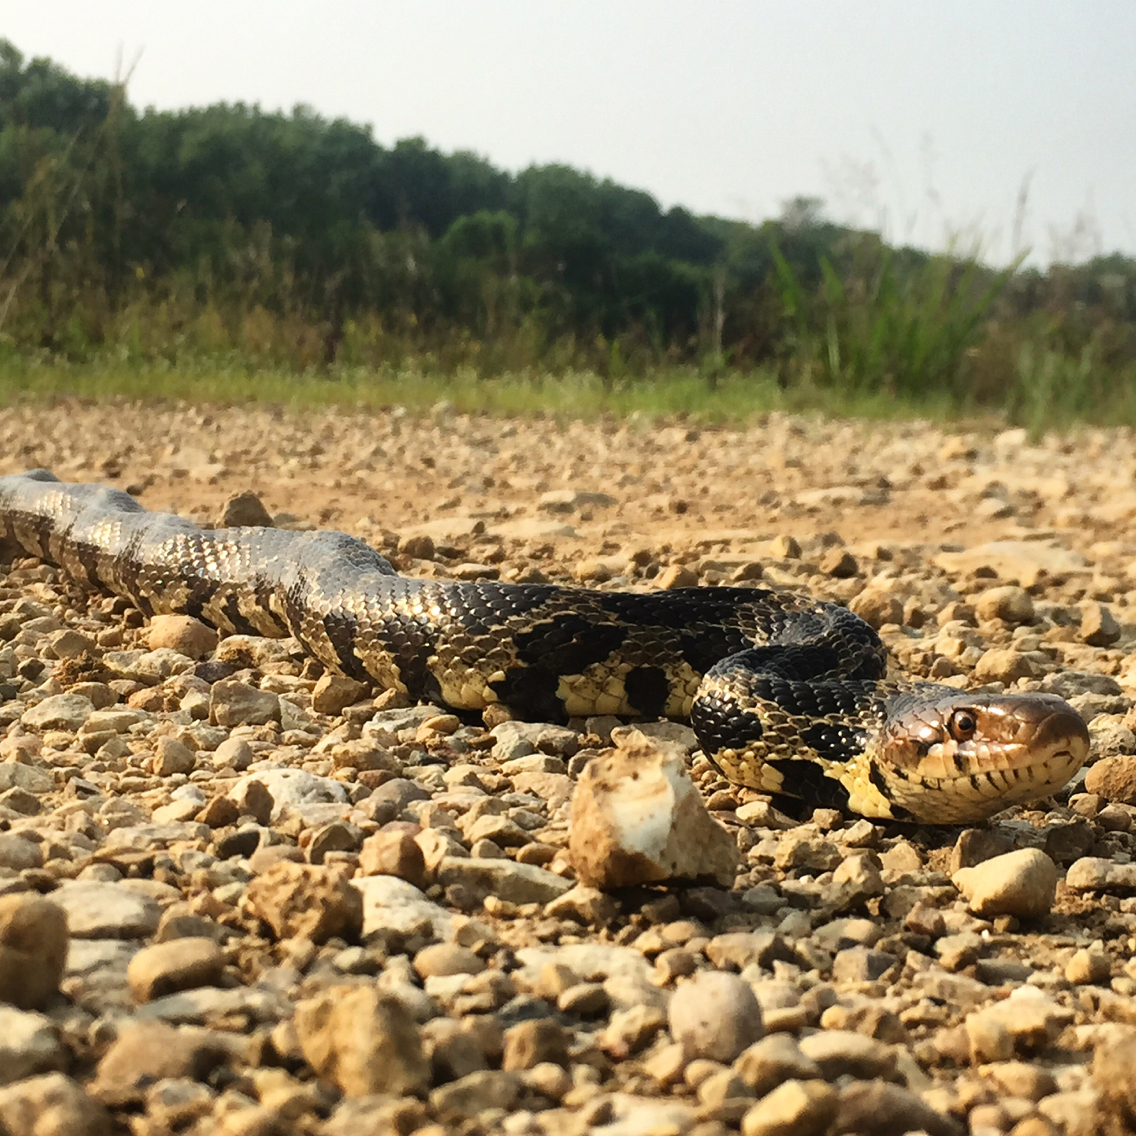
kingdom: Animalia
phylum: Chordata
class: Squamata
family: Colubridae
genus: Pantherophis
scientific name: Pantherophis vulpinus
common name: Eastern fox snake
